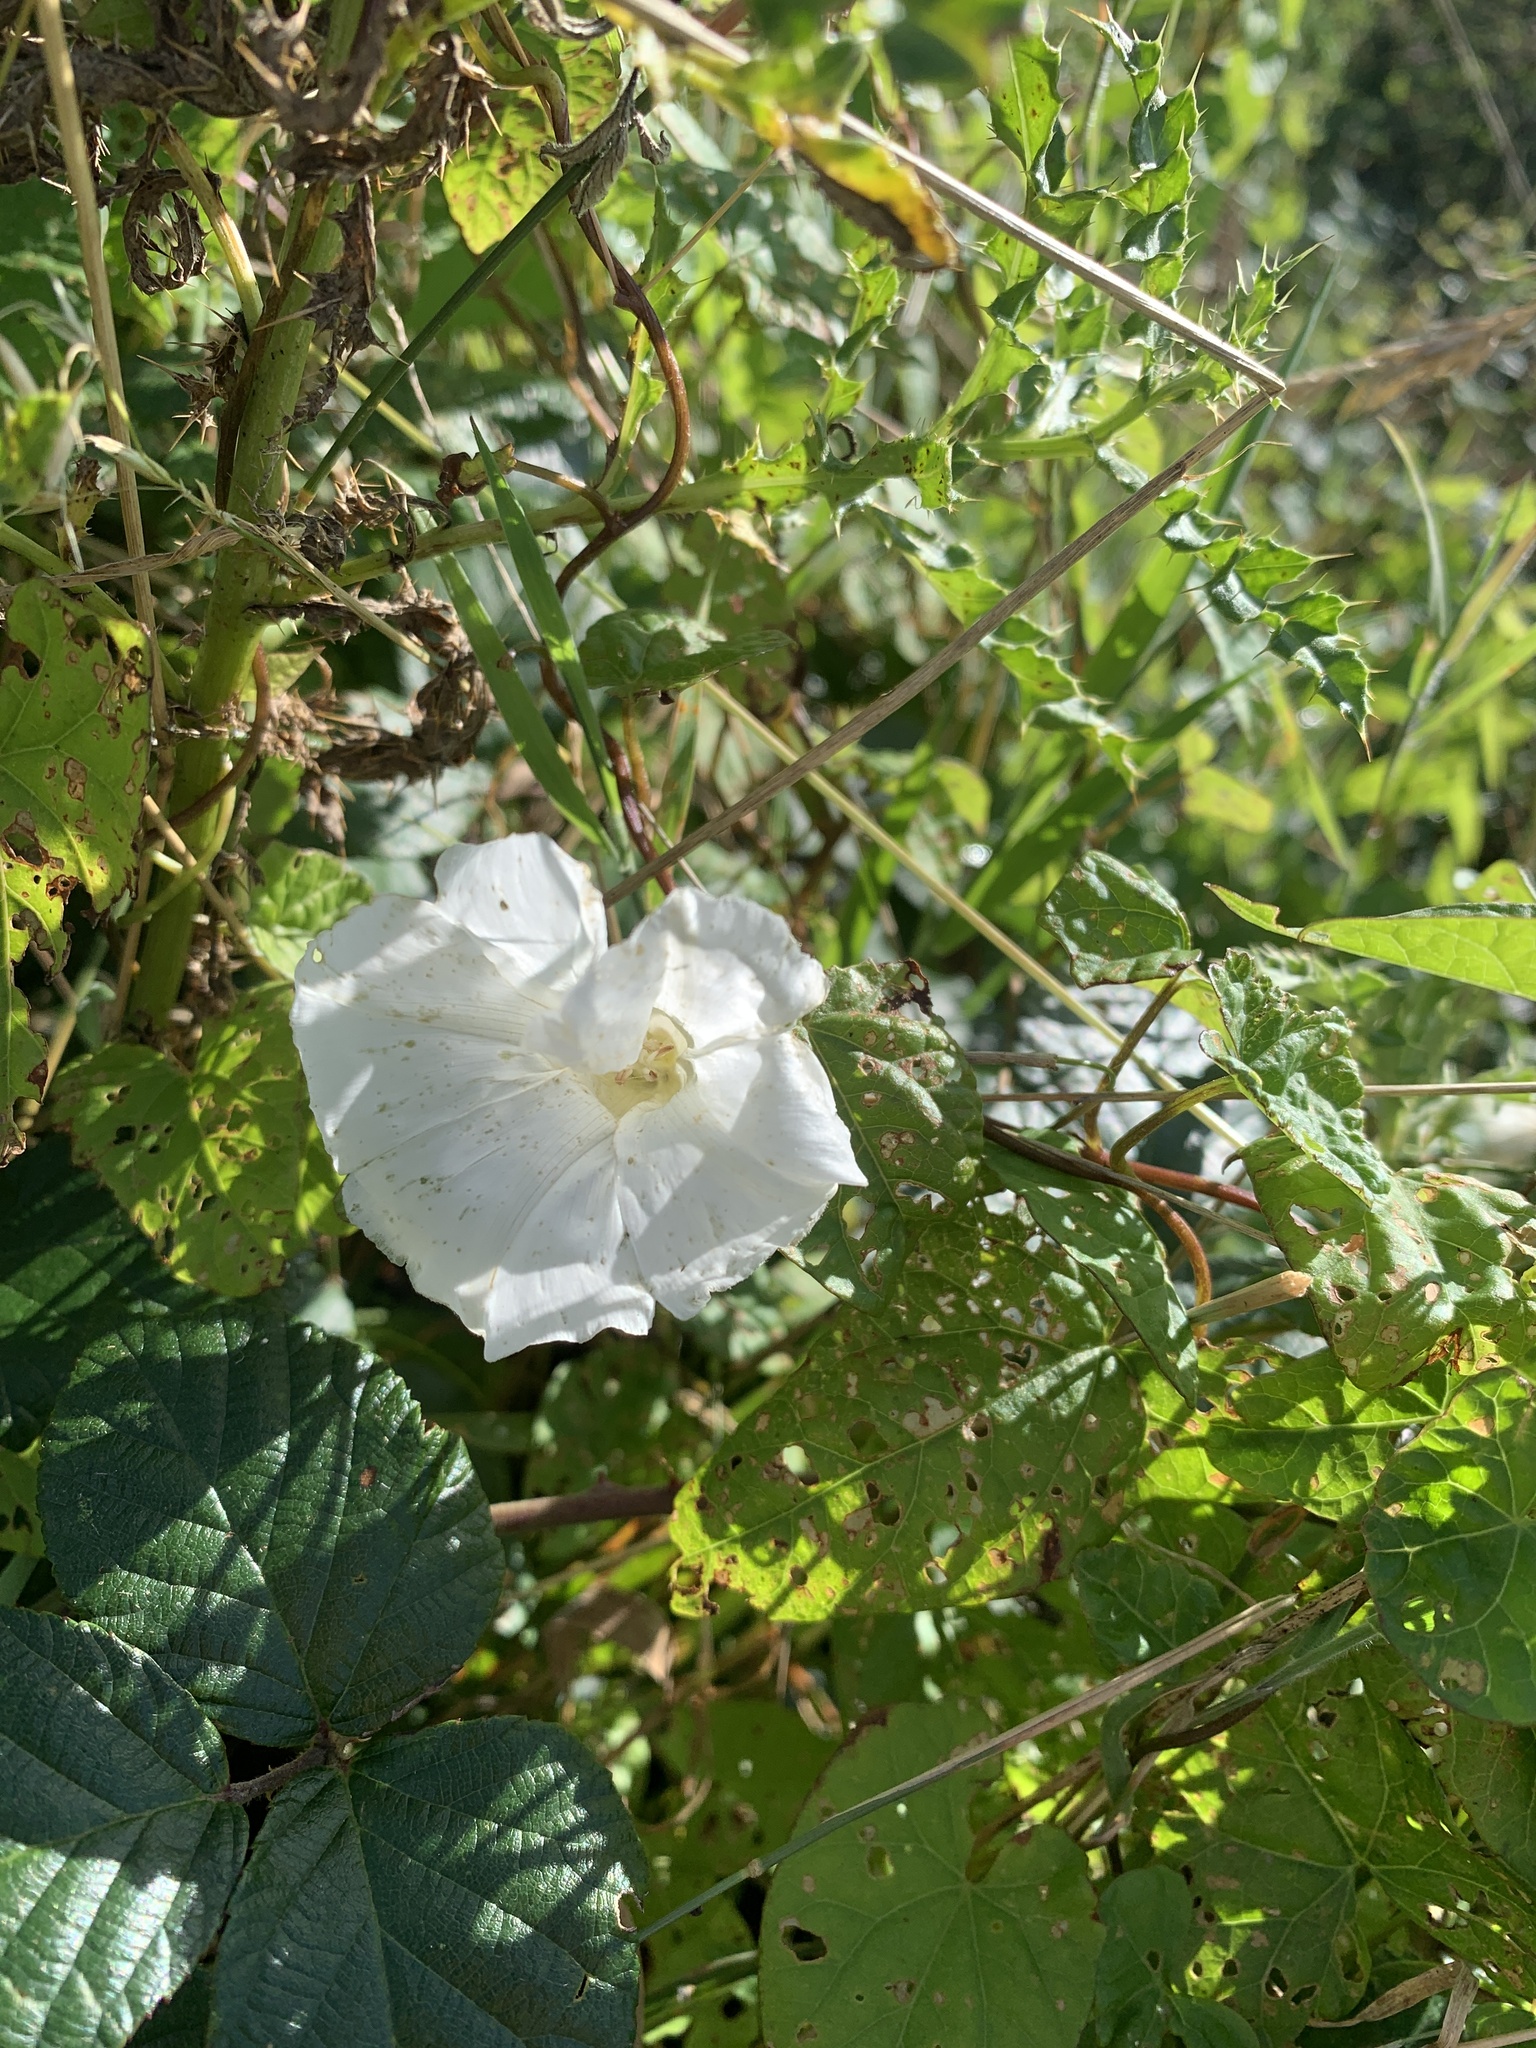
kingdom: Plantae
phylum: Tracheophyta
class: Magnoliopsida
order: Solanales
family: Convolvulaceae
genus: Convolvulus
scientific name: Convolvulus arvensis
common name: Field bindweed
